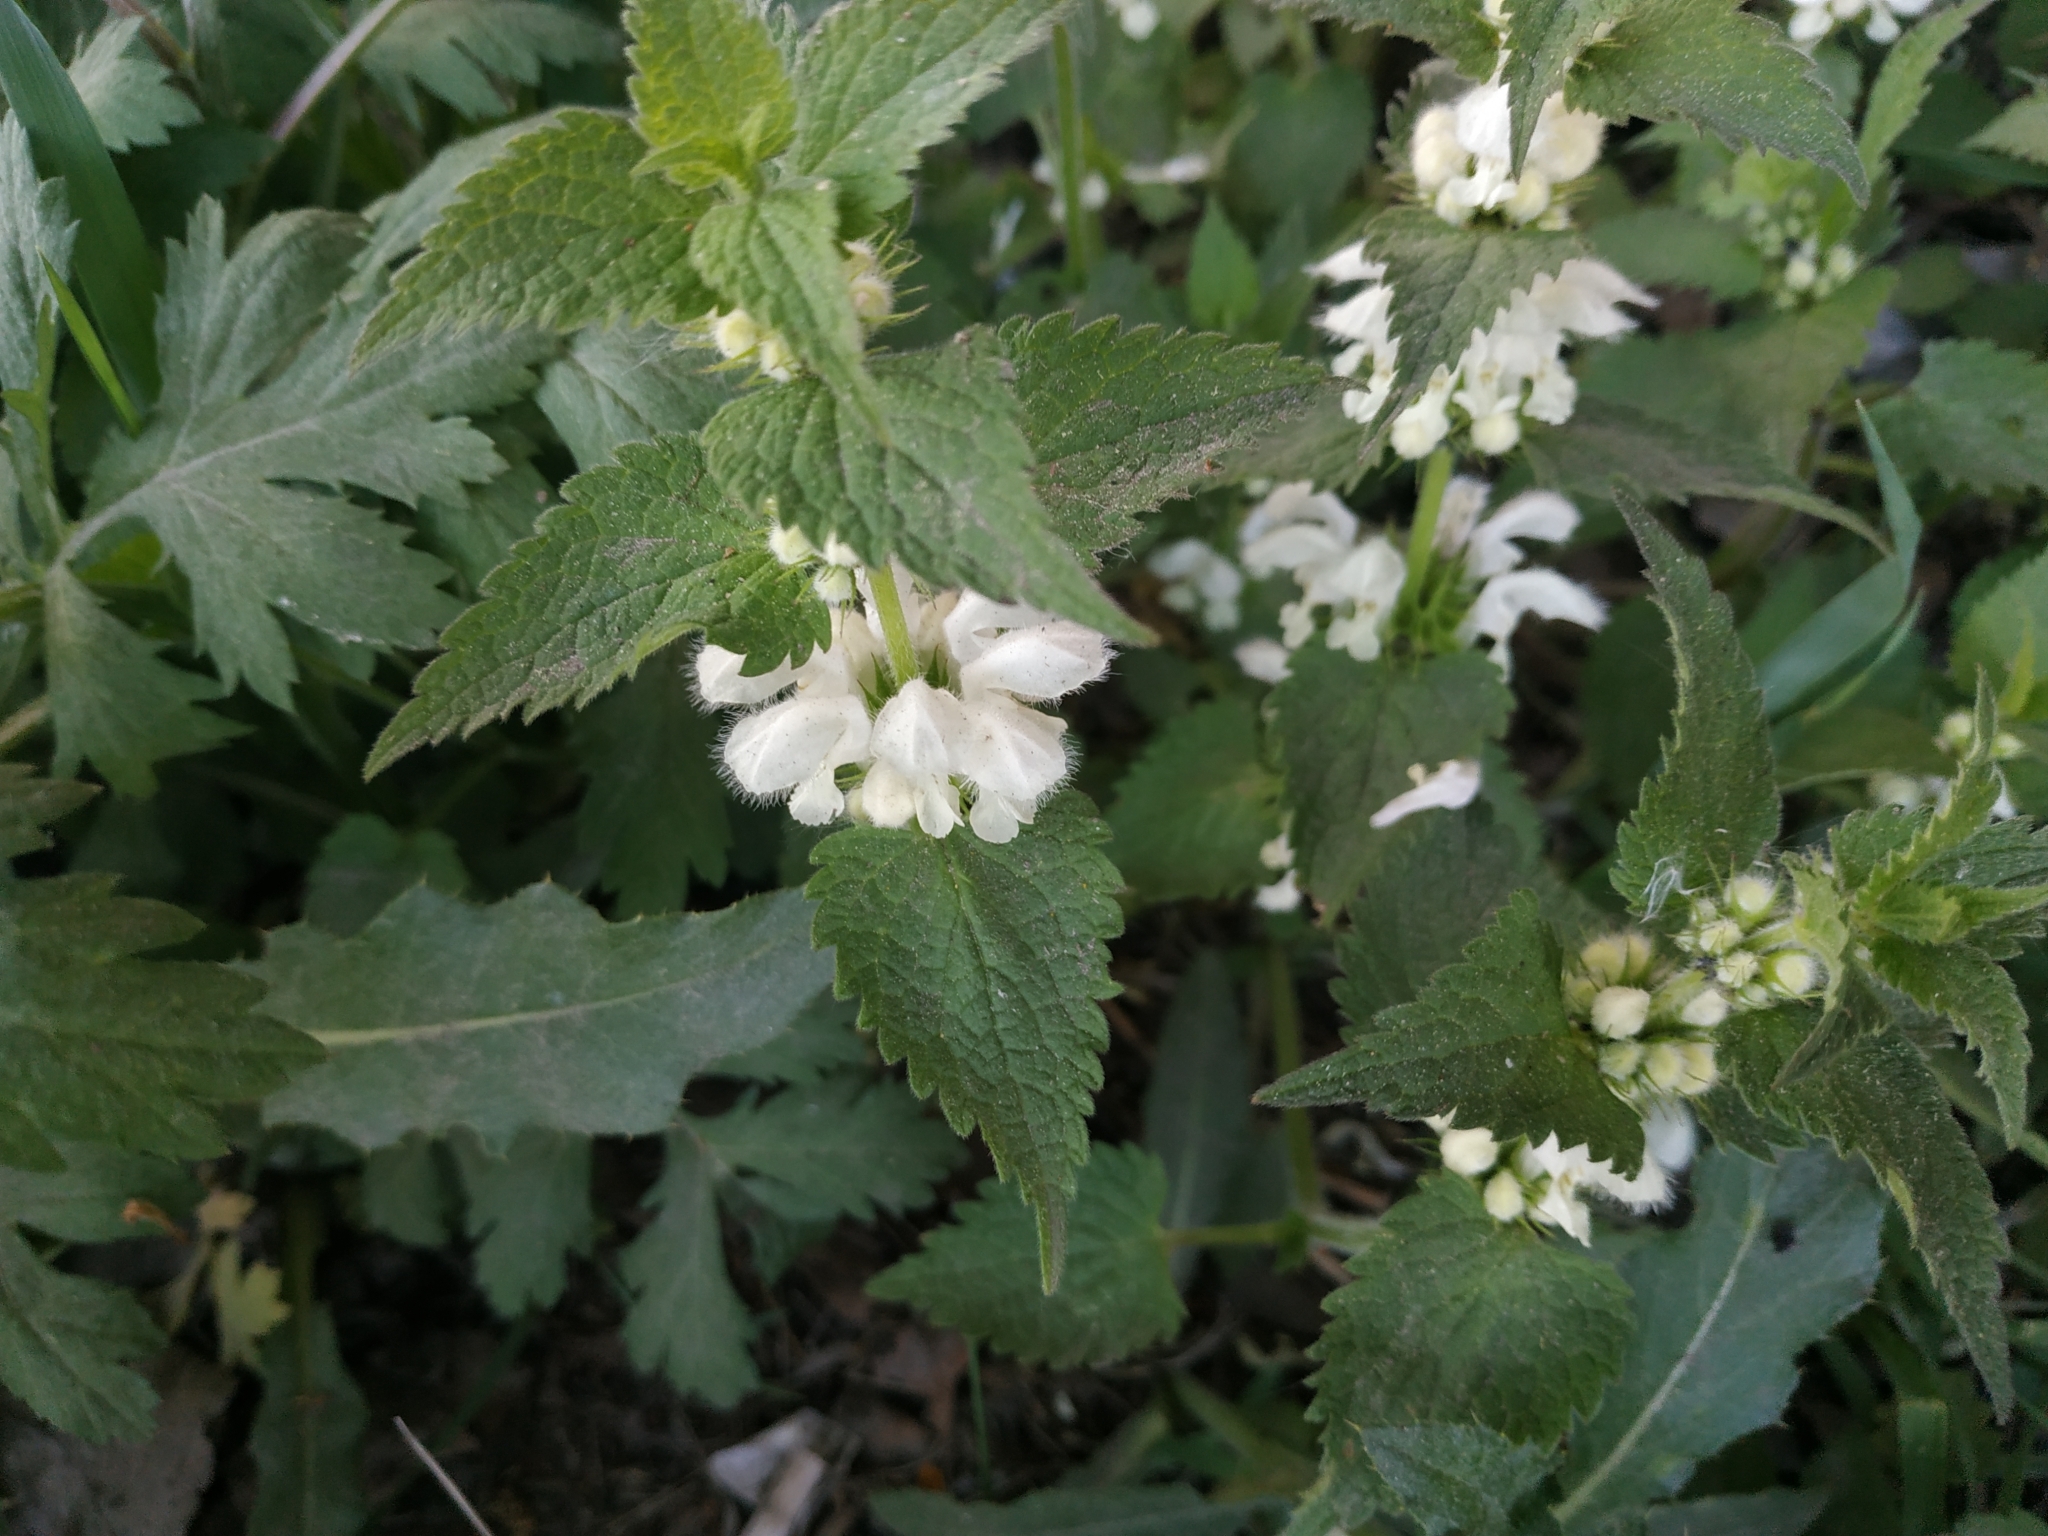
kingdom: Plantae
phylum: Tracheophyta
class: Magnoliopsida
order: Lamiales
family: Lamiaceae
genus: Lamium
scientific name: Lamium album
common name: White dead-nettle
